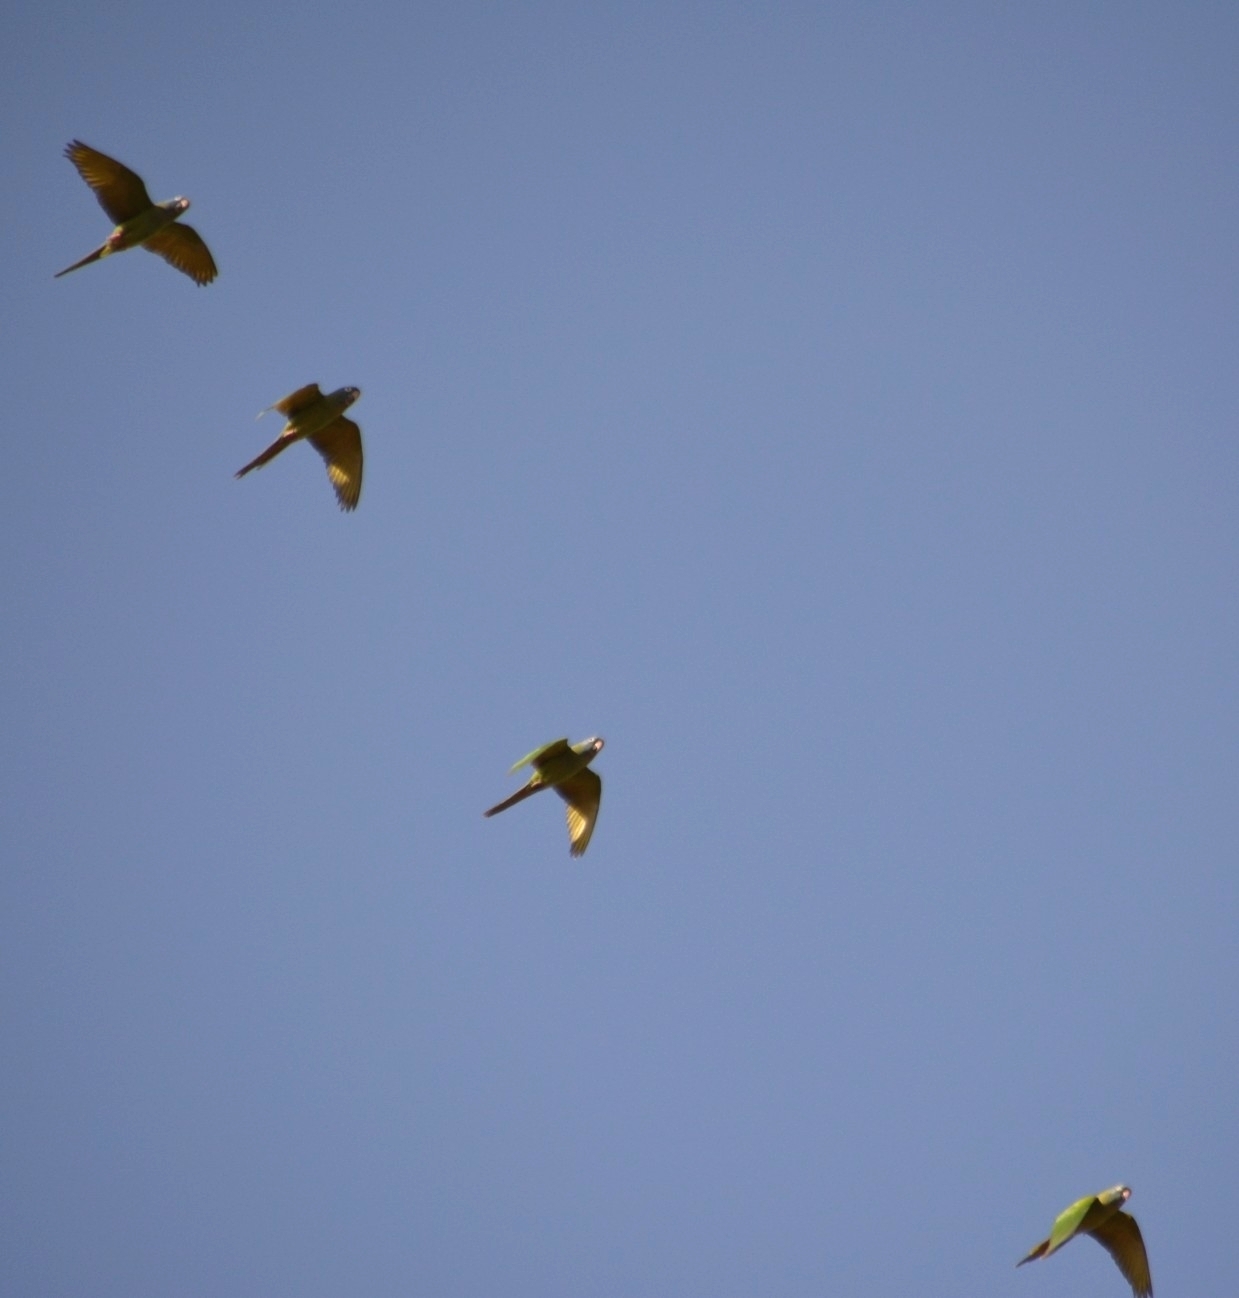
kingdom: Animalia
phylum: Chordata
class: Aves
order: Psittaciformes
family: Psittacidae
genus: Aratinga
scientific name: Aratinga acuticaudata
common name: Blue-crowned parakeet
